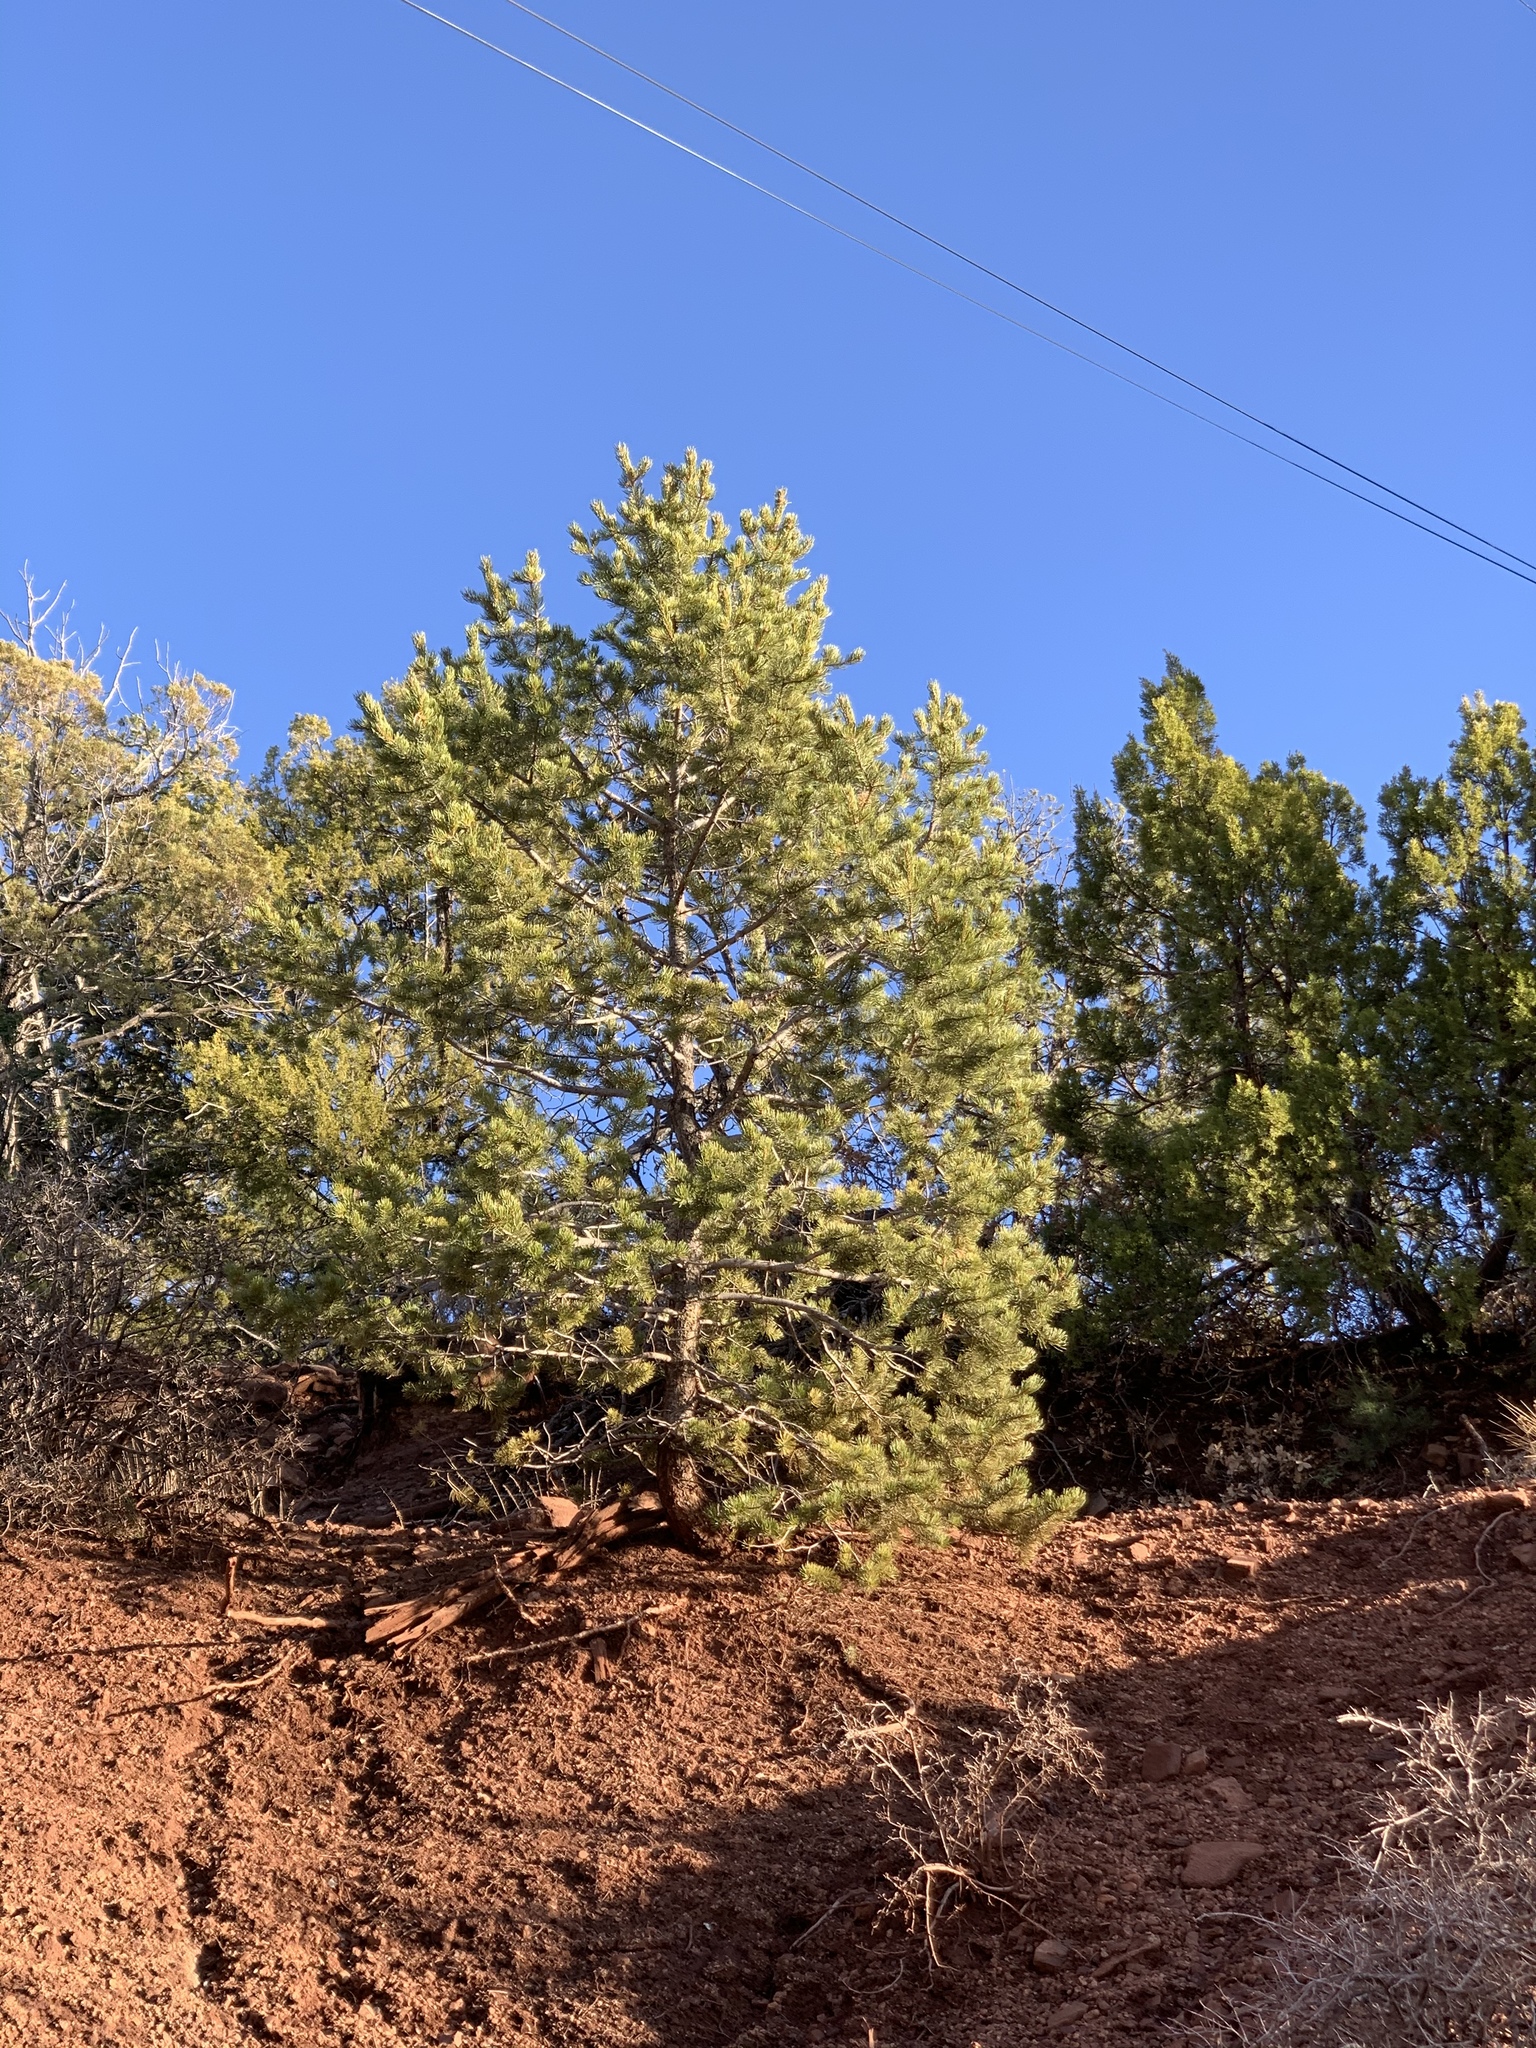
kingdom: Plantae
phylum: Tracheophyta
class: Pinopsida
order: Pinales
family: Pinaceae
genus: Pinus
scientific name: Pinus edulis
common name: Colorado pinyon
